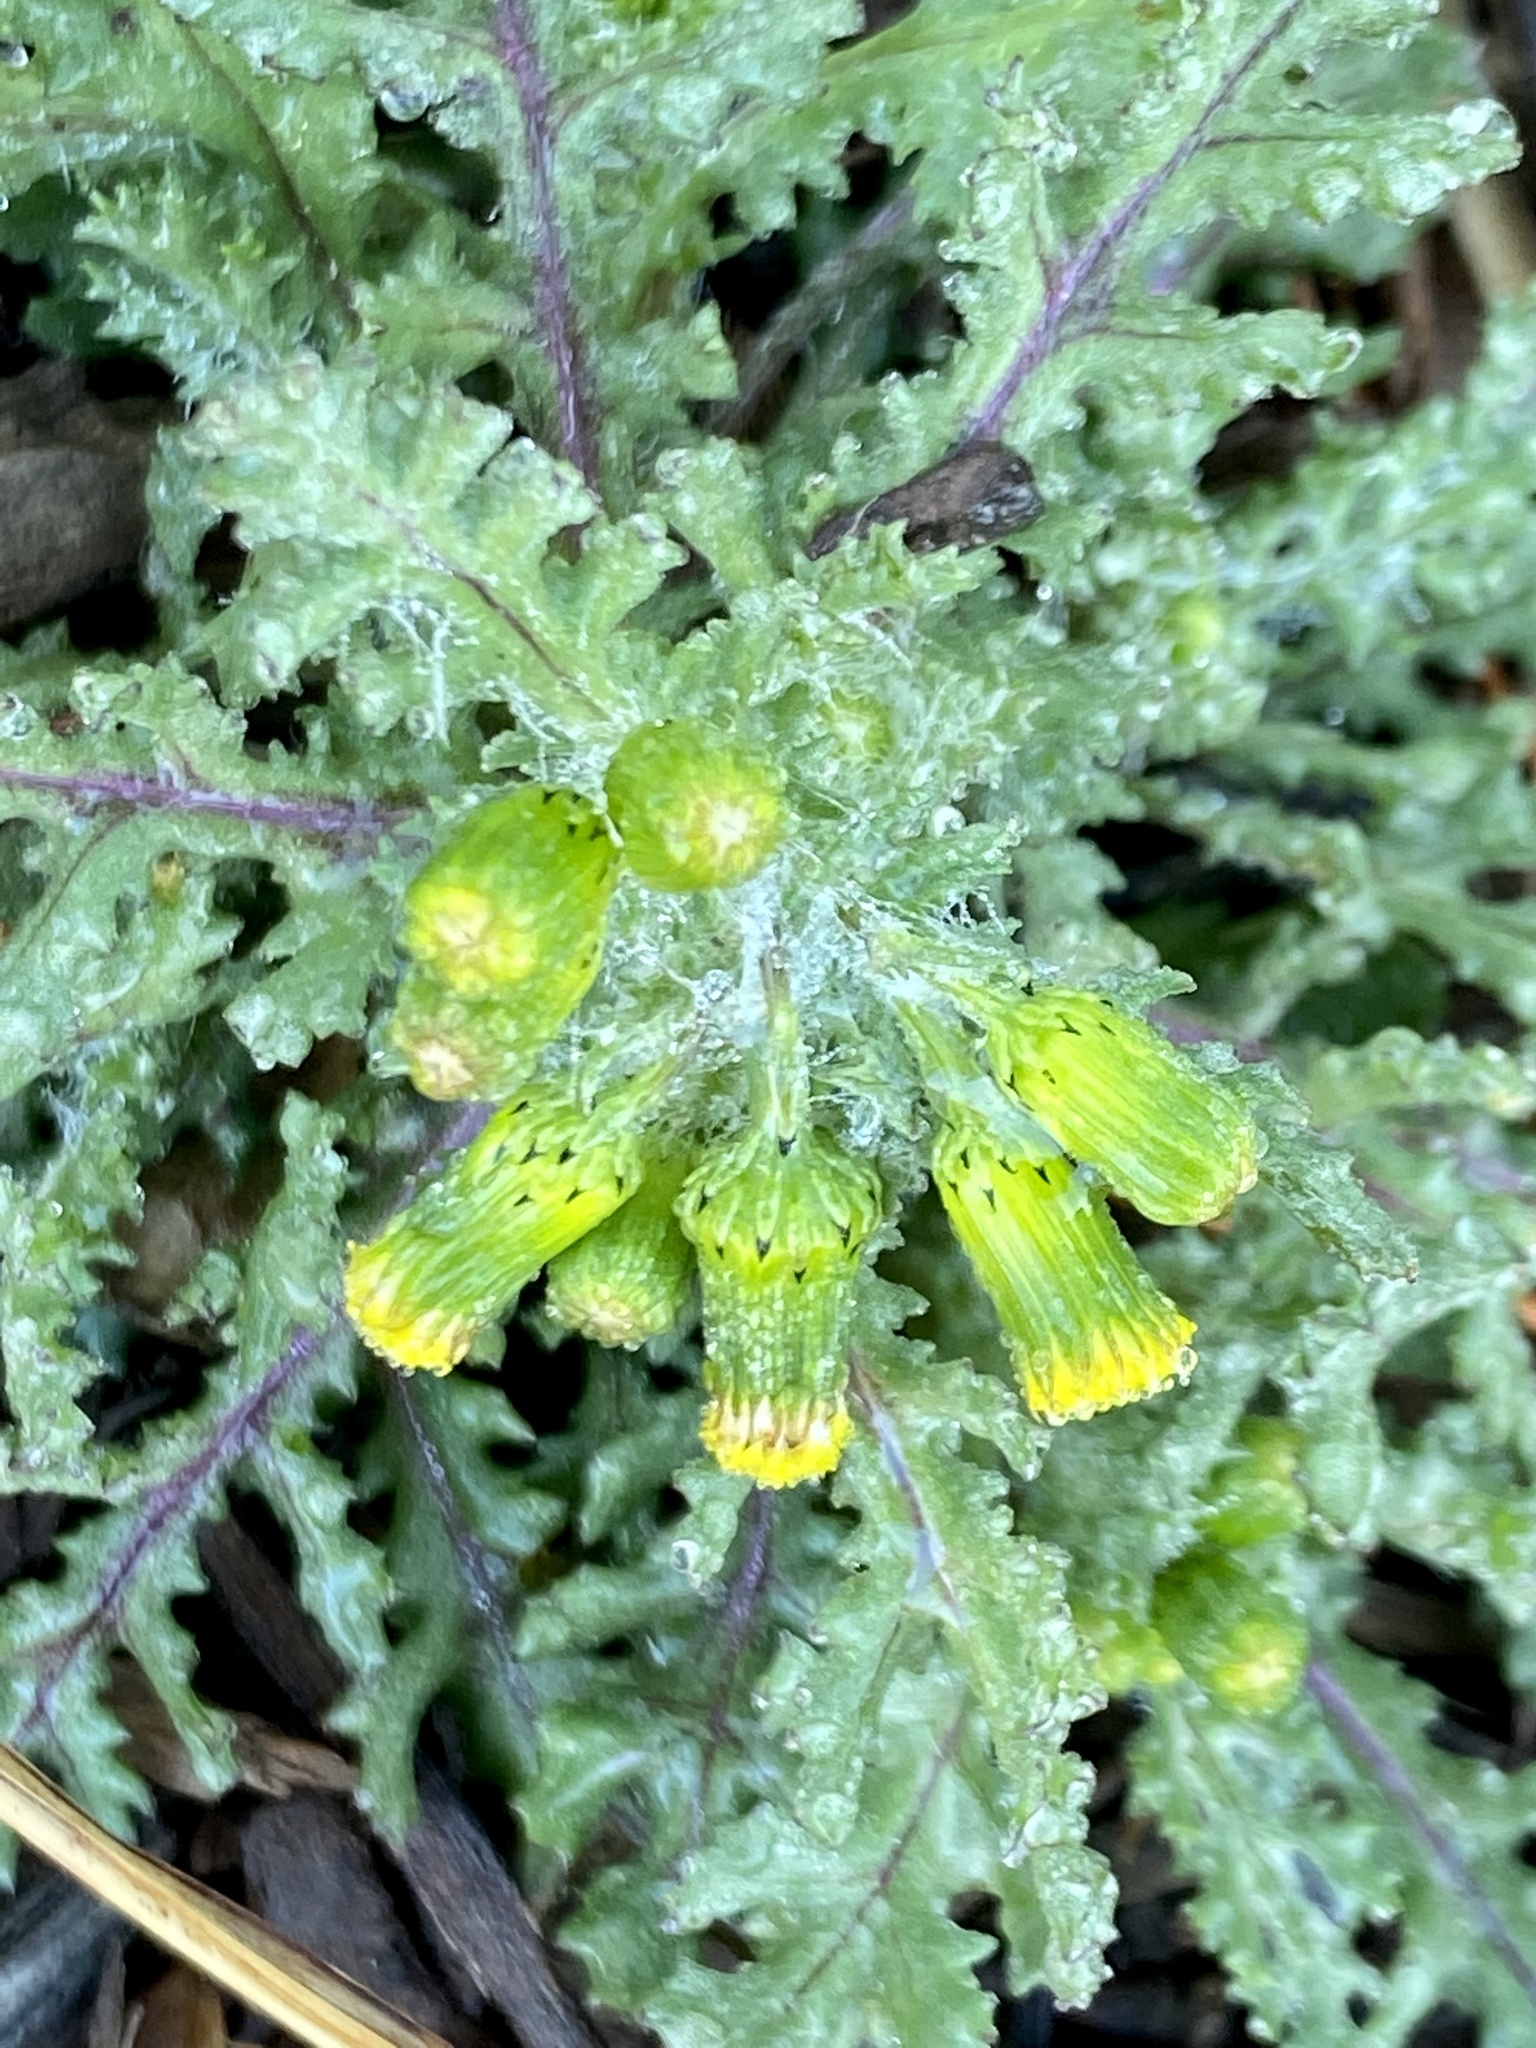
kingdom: Plantae
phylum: Tracheophyta
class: Magnoliopsida
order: Asterales
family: Asteraceae
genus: Senecio
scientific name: Senecio vulgaris
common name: Old-man-in-the-spring
